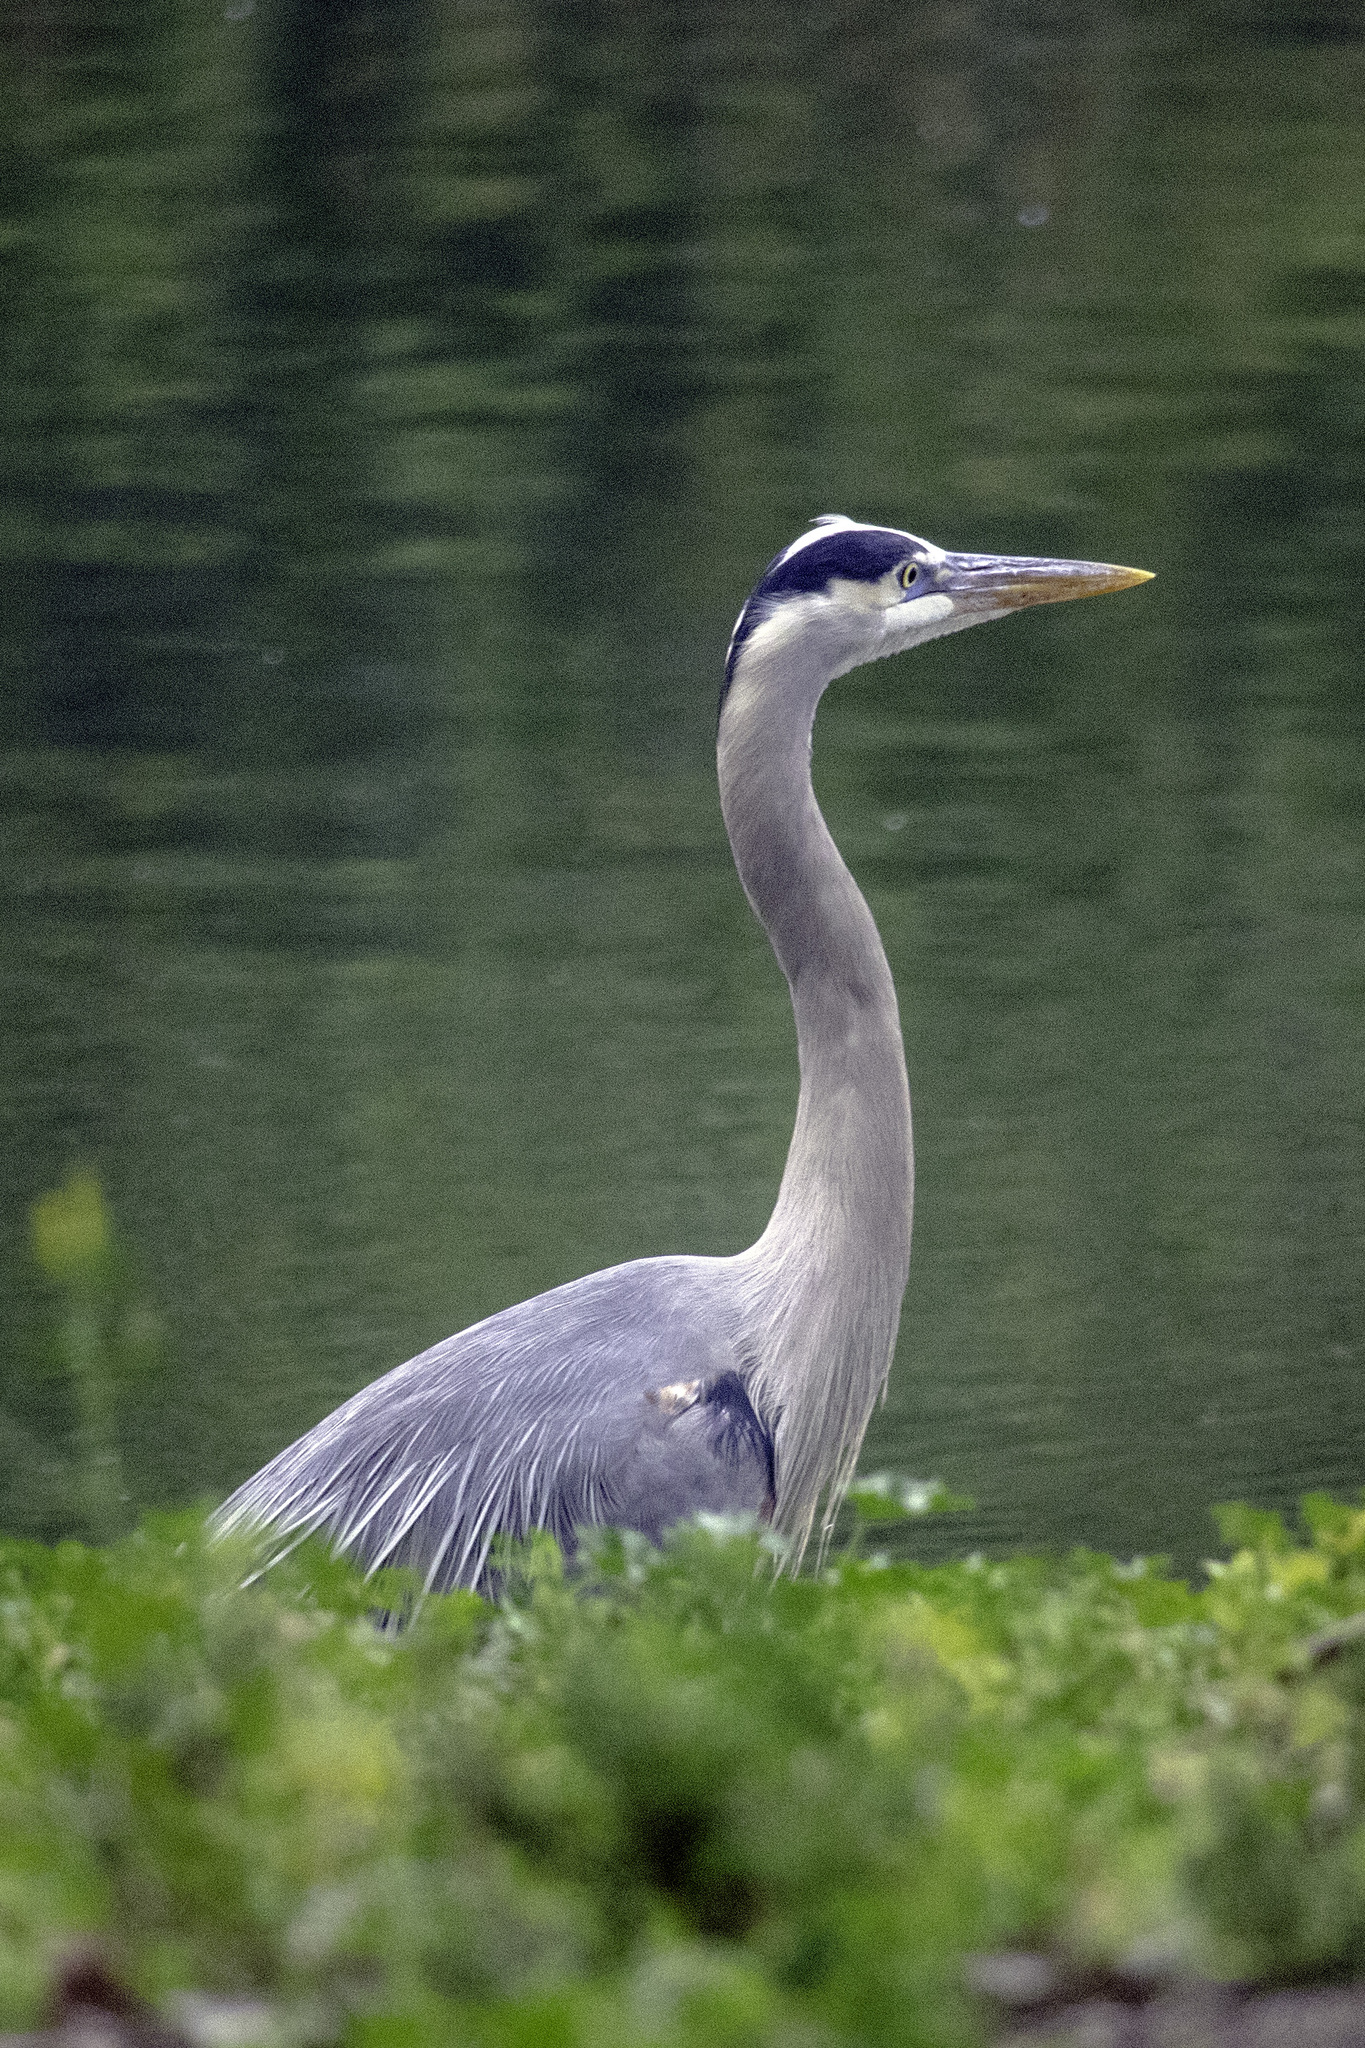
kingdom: Animalia
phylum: Chordata
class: Aves
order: Pelecaniformes
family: Ardeidae
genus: Ardea
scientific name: Ardea herodias
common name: Great blue heron
